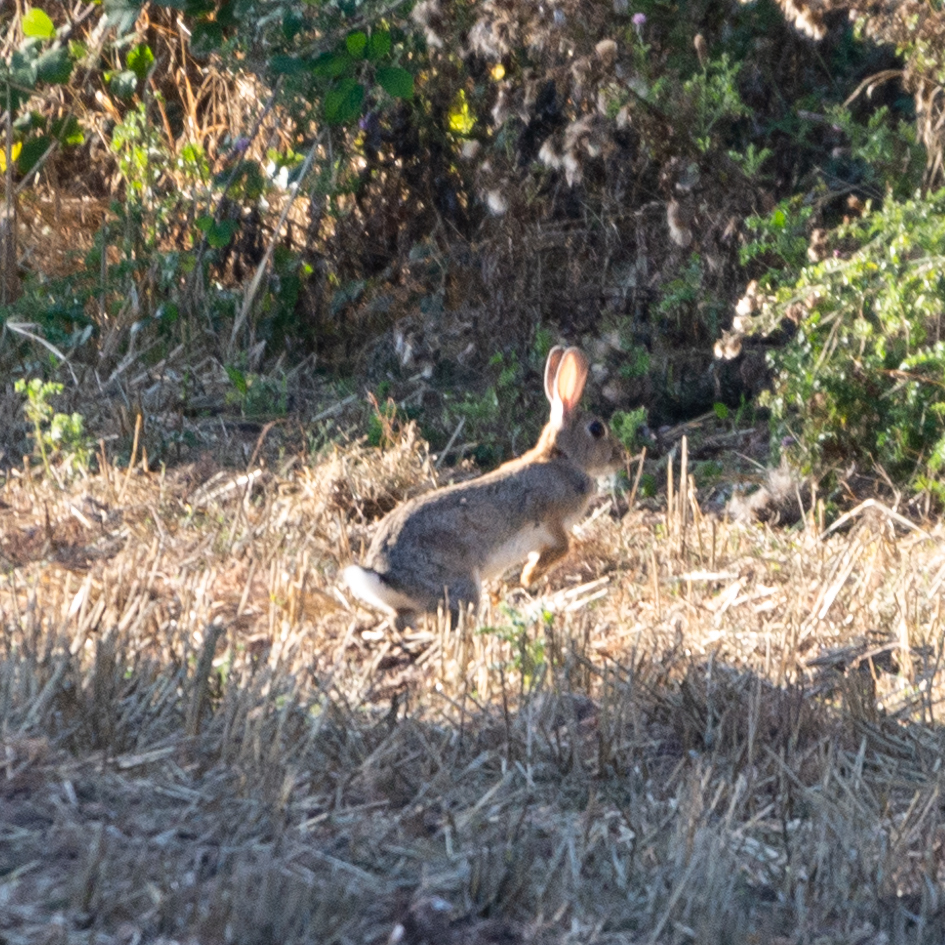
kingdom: Animalia
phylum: Chordata
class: Mammalia
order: Lagomorpha
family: Leporidae
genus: Oryctolagus
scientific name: Oryctolagus cuniculus
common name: European rabbit
